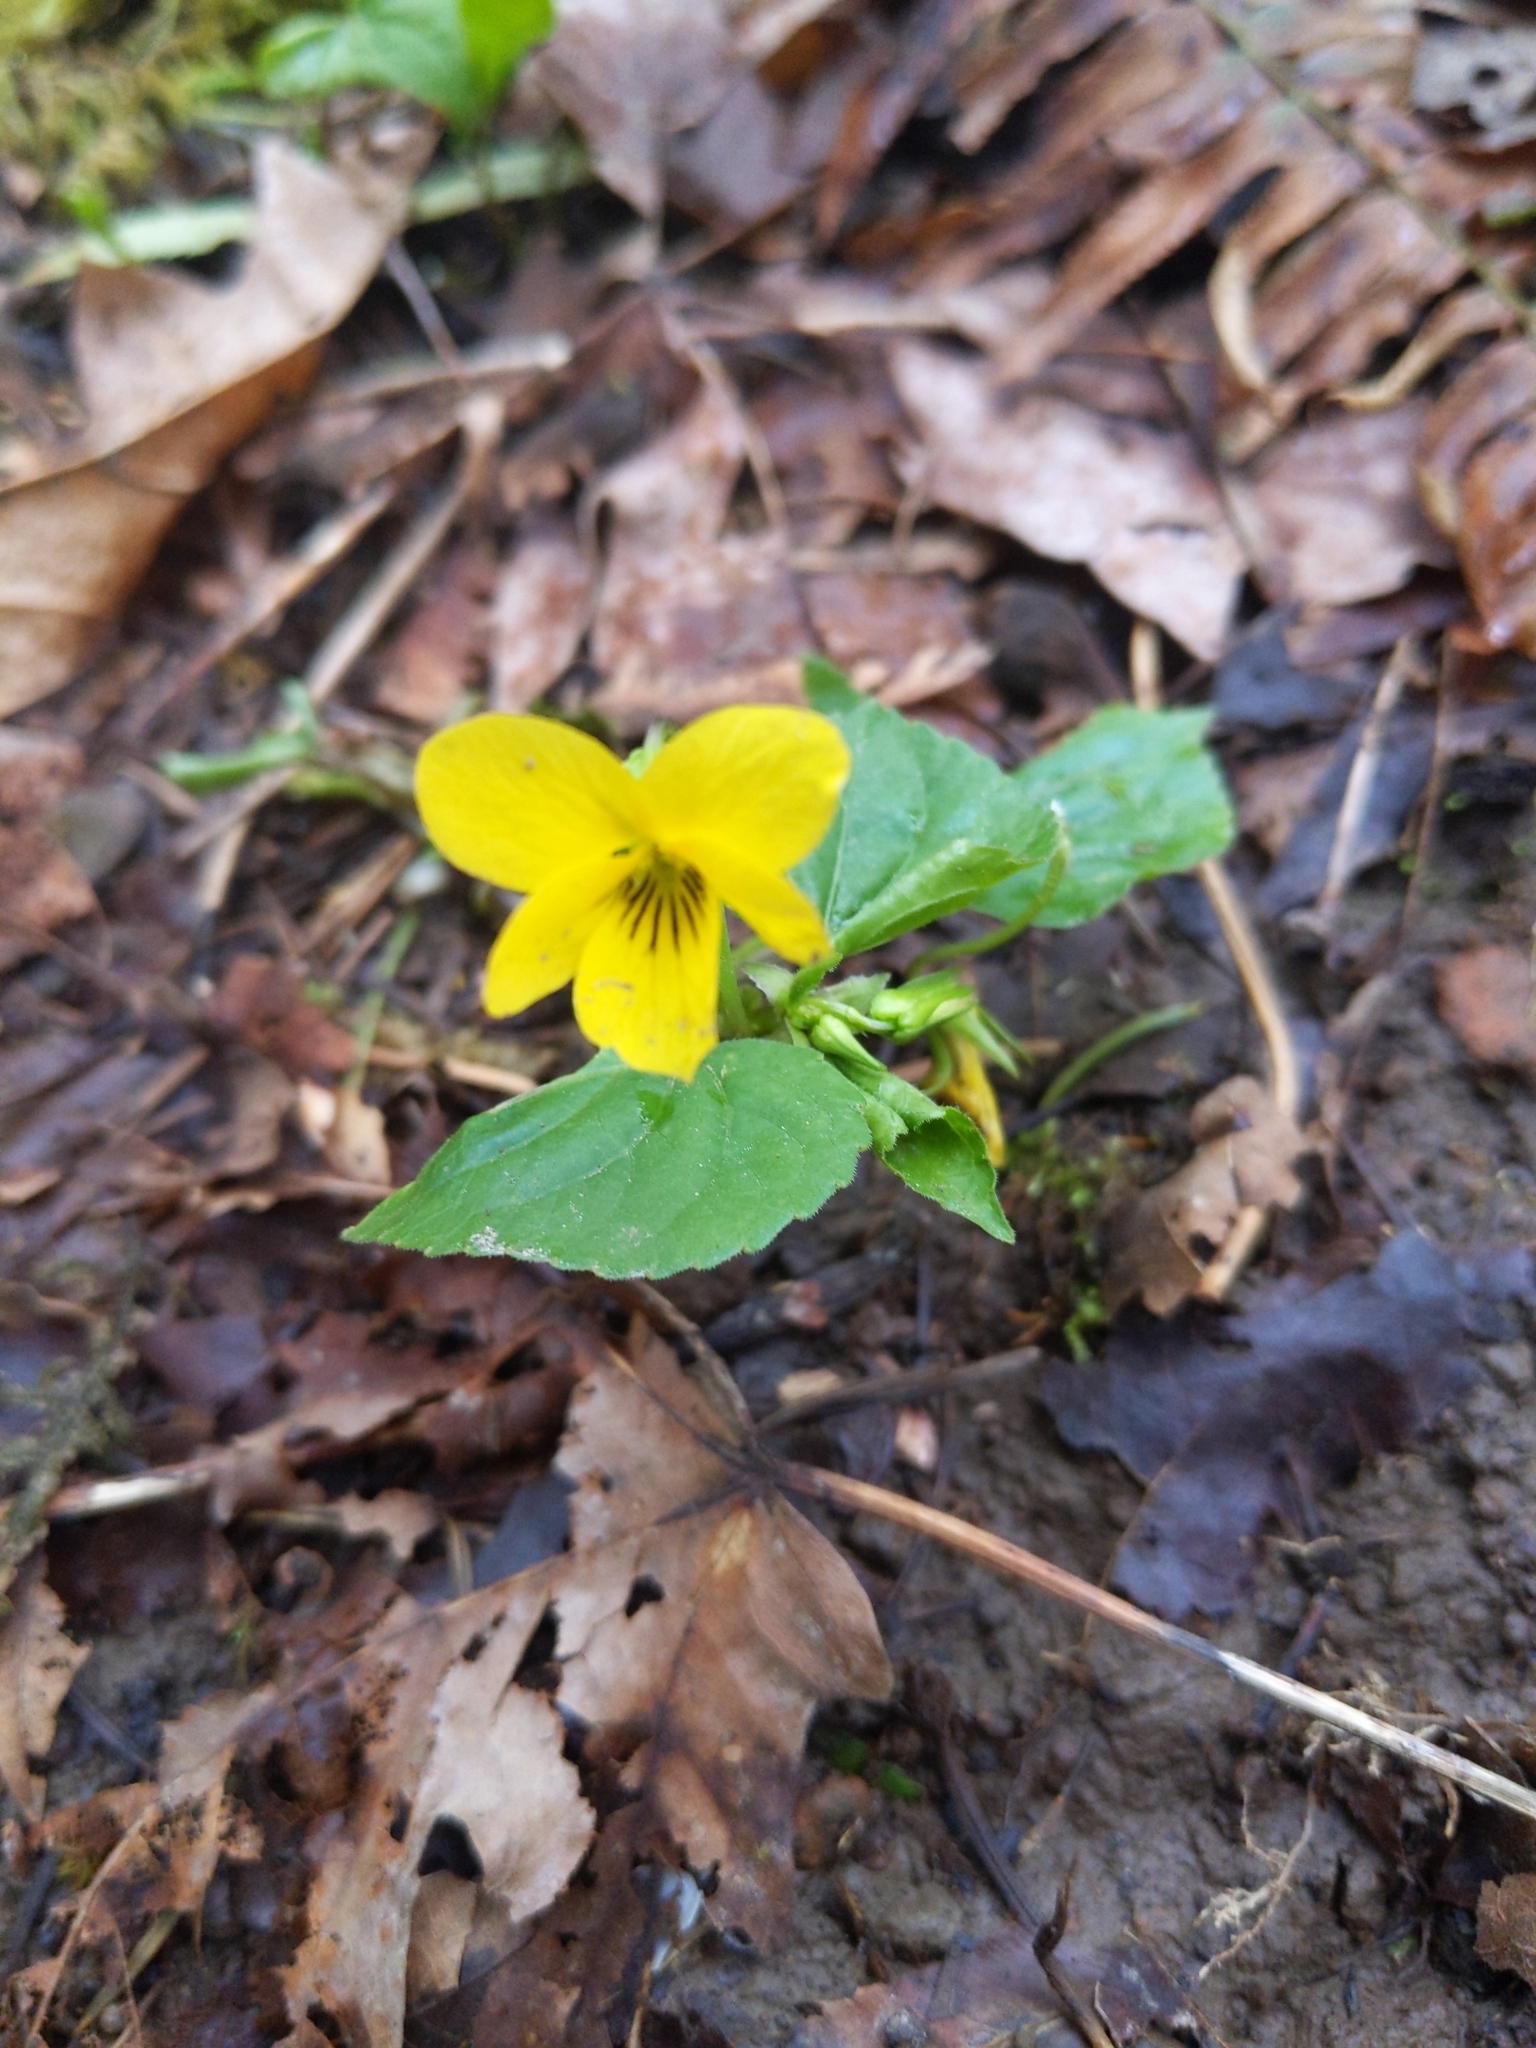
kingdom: Plantae
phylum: Tracheophyta
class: Magnoliopsida
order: Malpighiales
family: Violaceae
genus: Viola
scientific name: Viola glabella
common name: Stream violet
